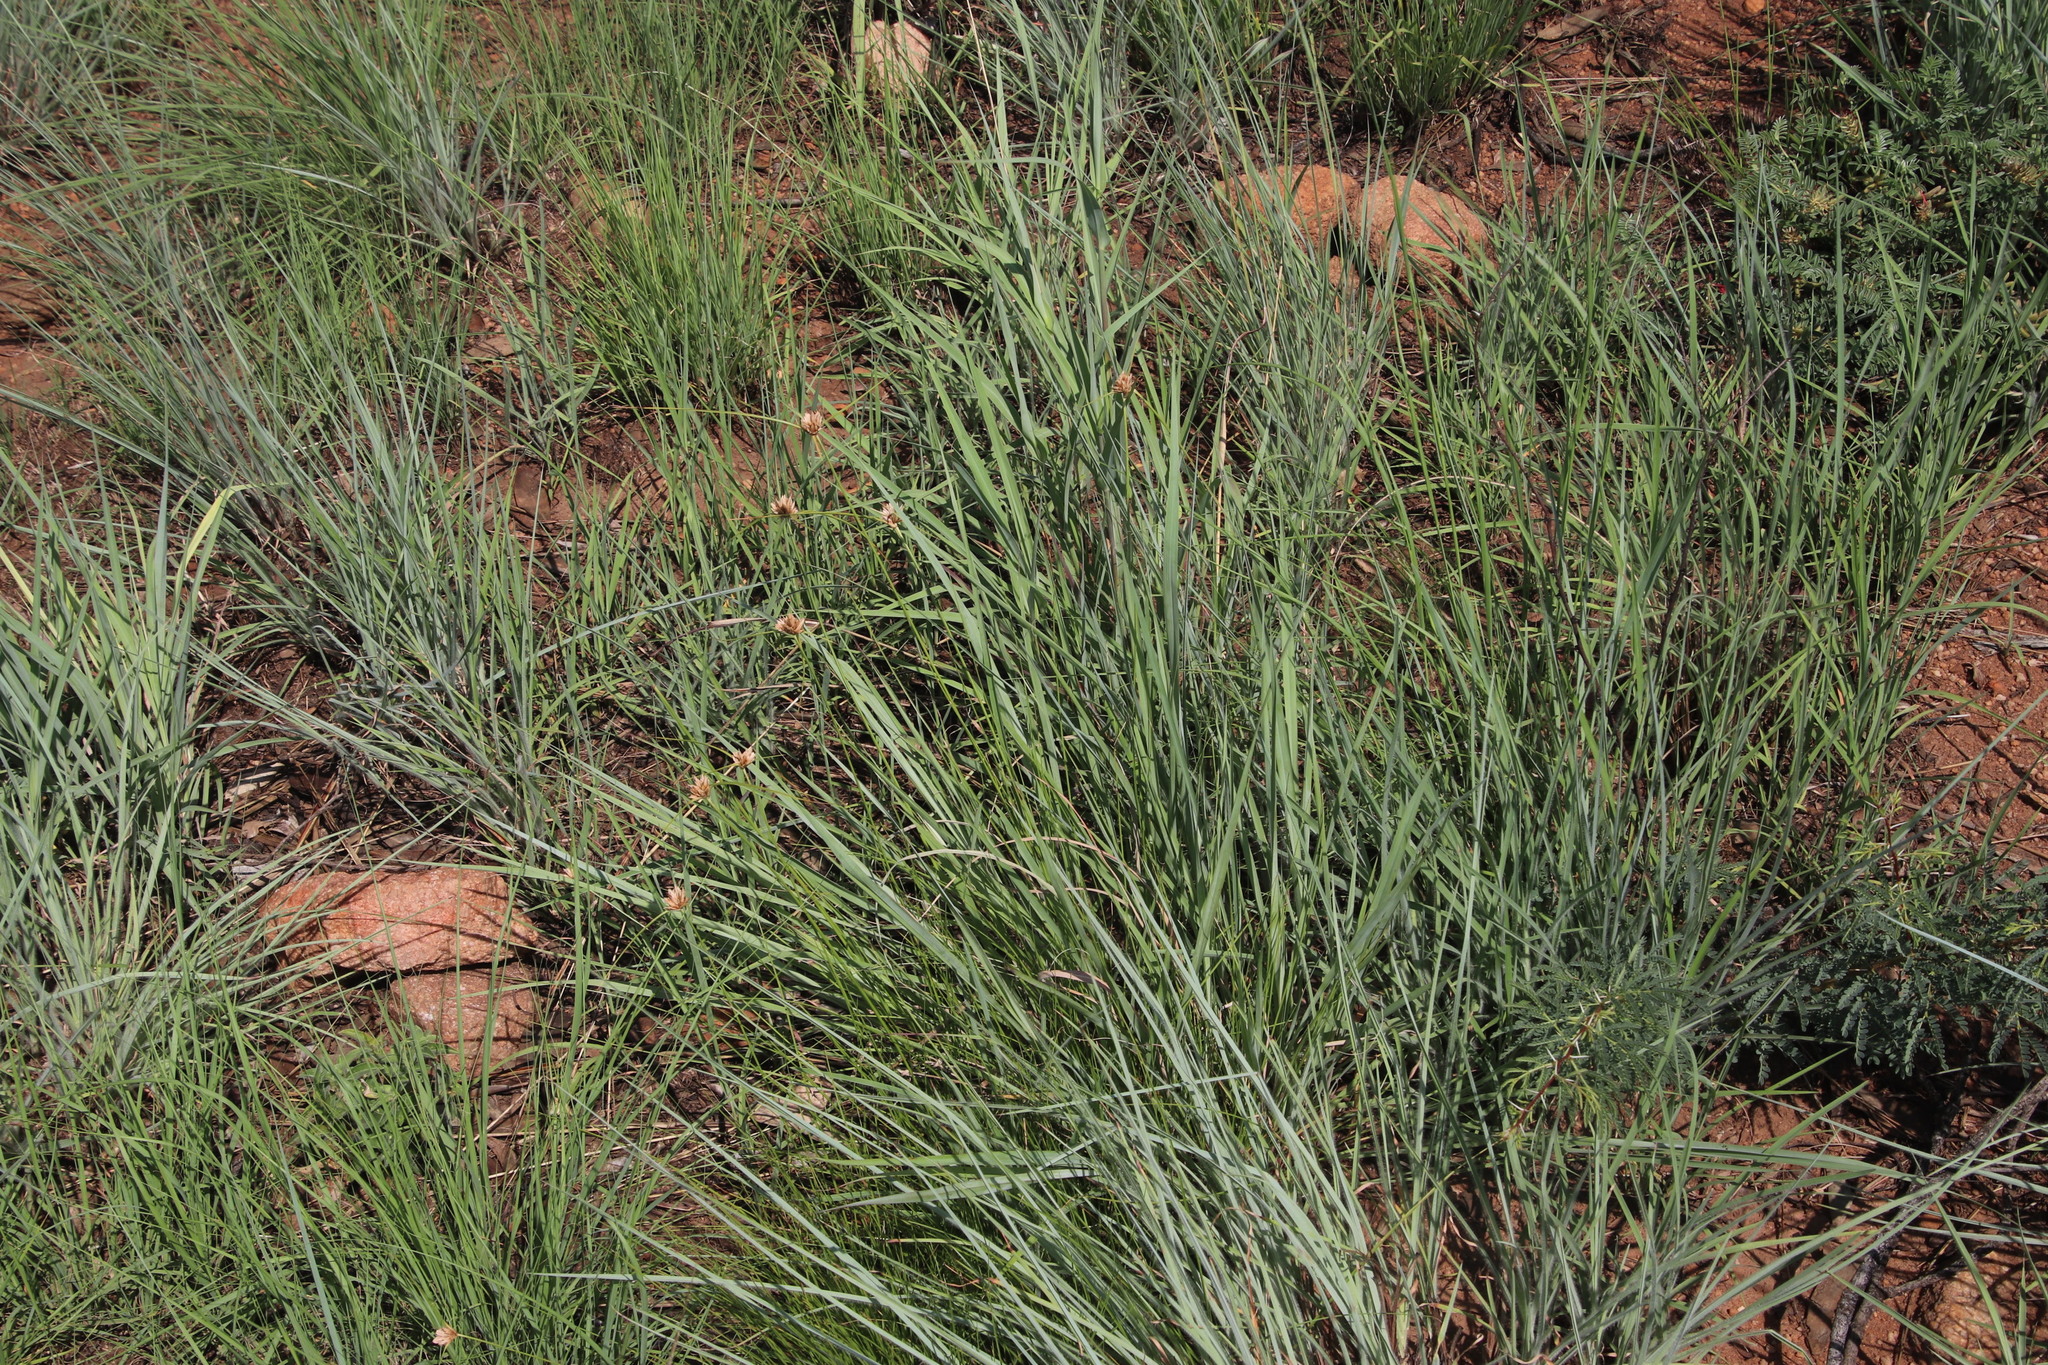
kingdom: Plantae
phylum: Tracheophyta
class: Liliopsida
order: Poales
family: Cyperaceae
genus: Cyperus
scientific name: Cyperus niveus
